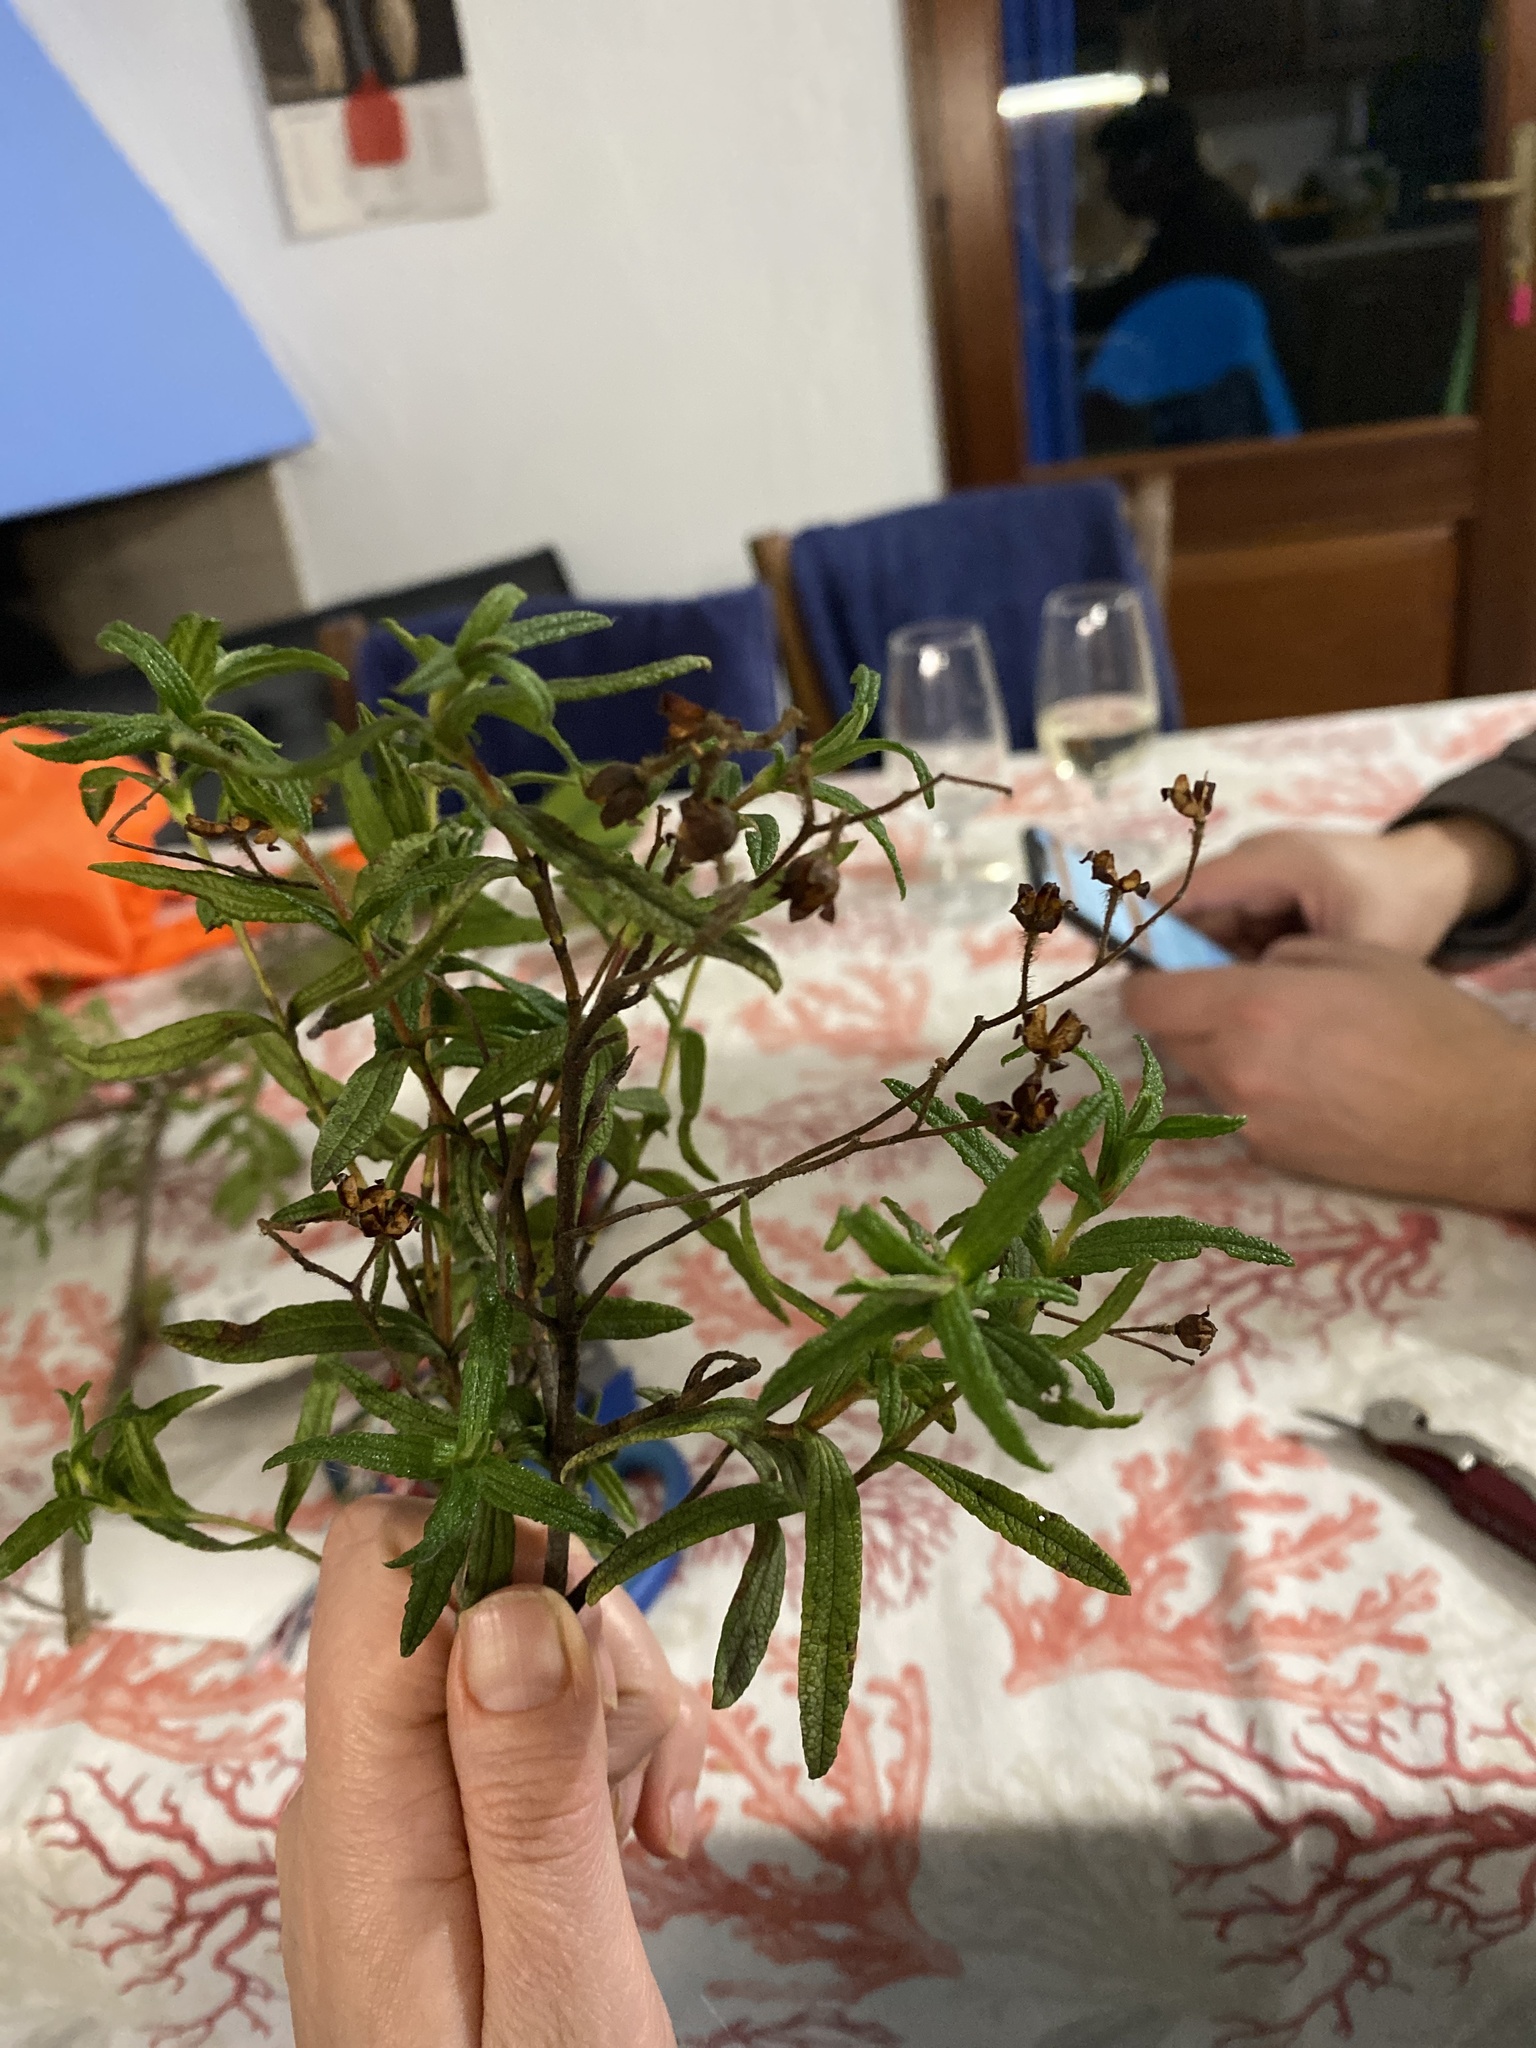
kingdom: Plantae
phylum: Tracheophyta
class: Magnoliopsida
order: Malvales
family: Cistaceae
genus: Cistus
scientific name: Cistus monspeliensis
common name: Montpelier cistus
